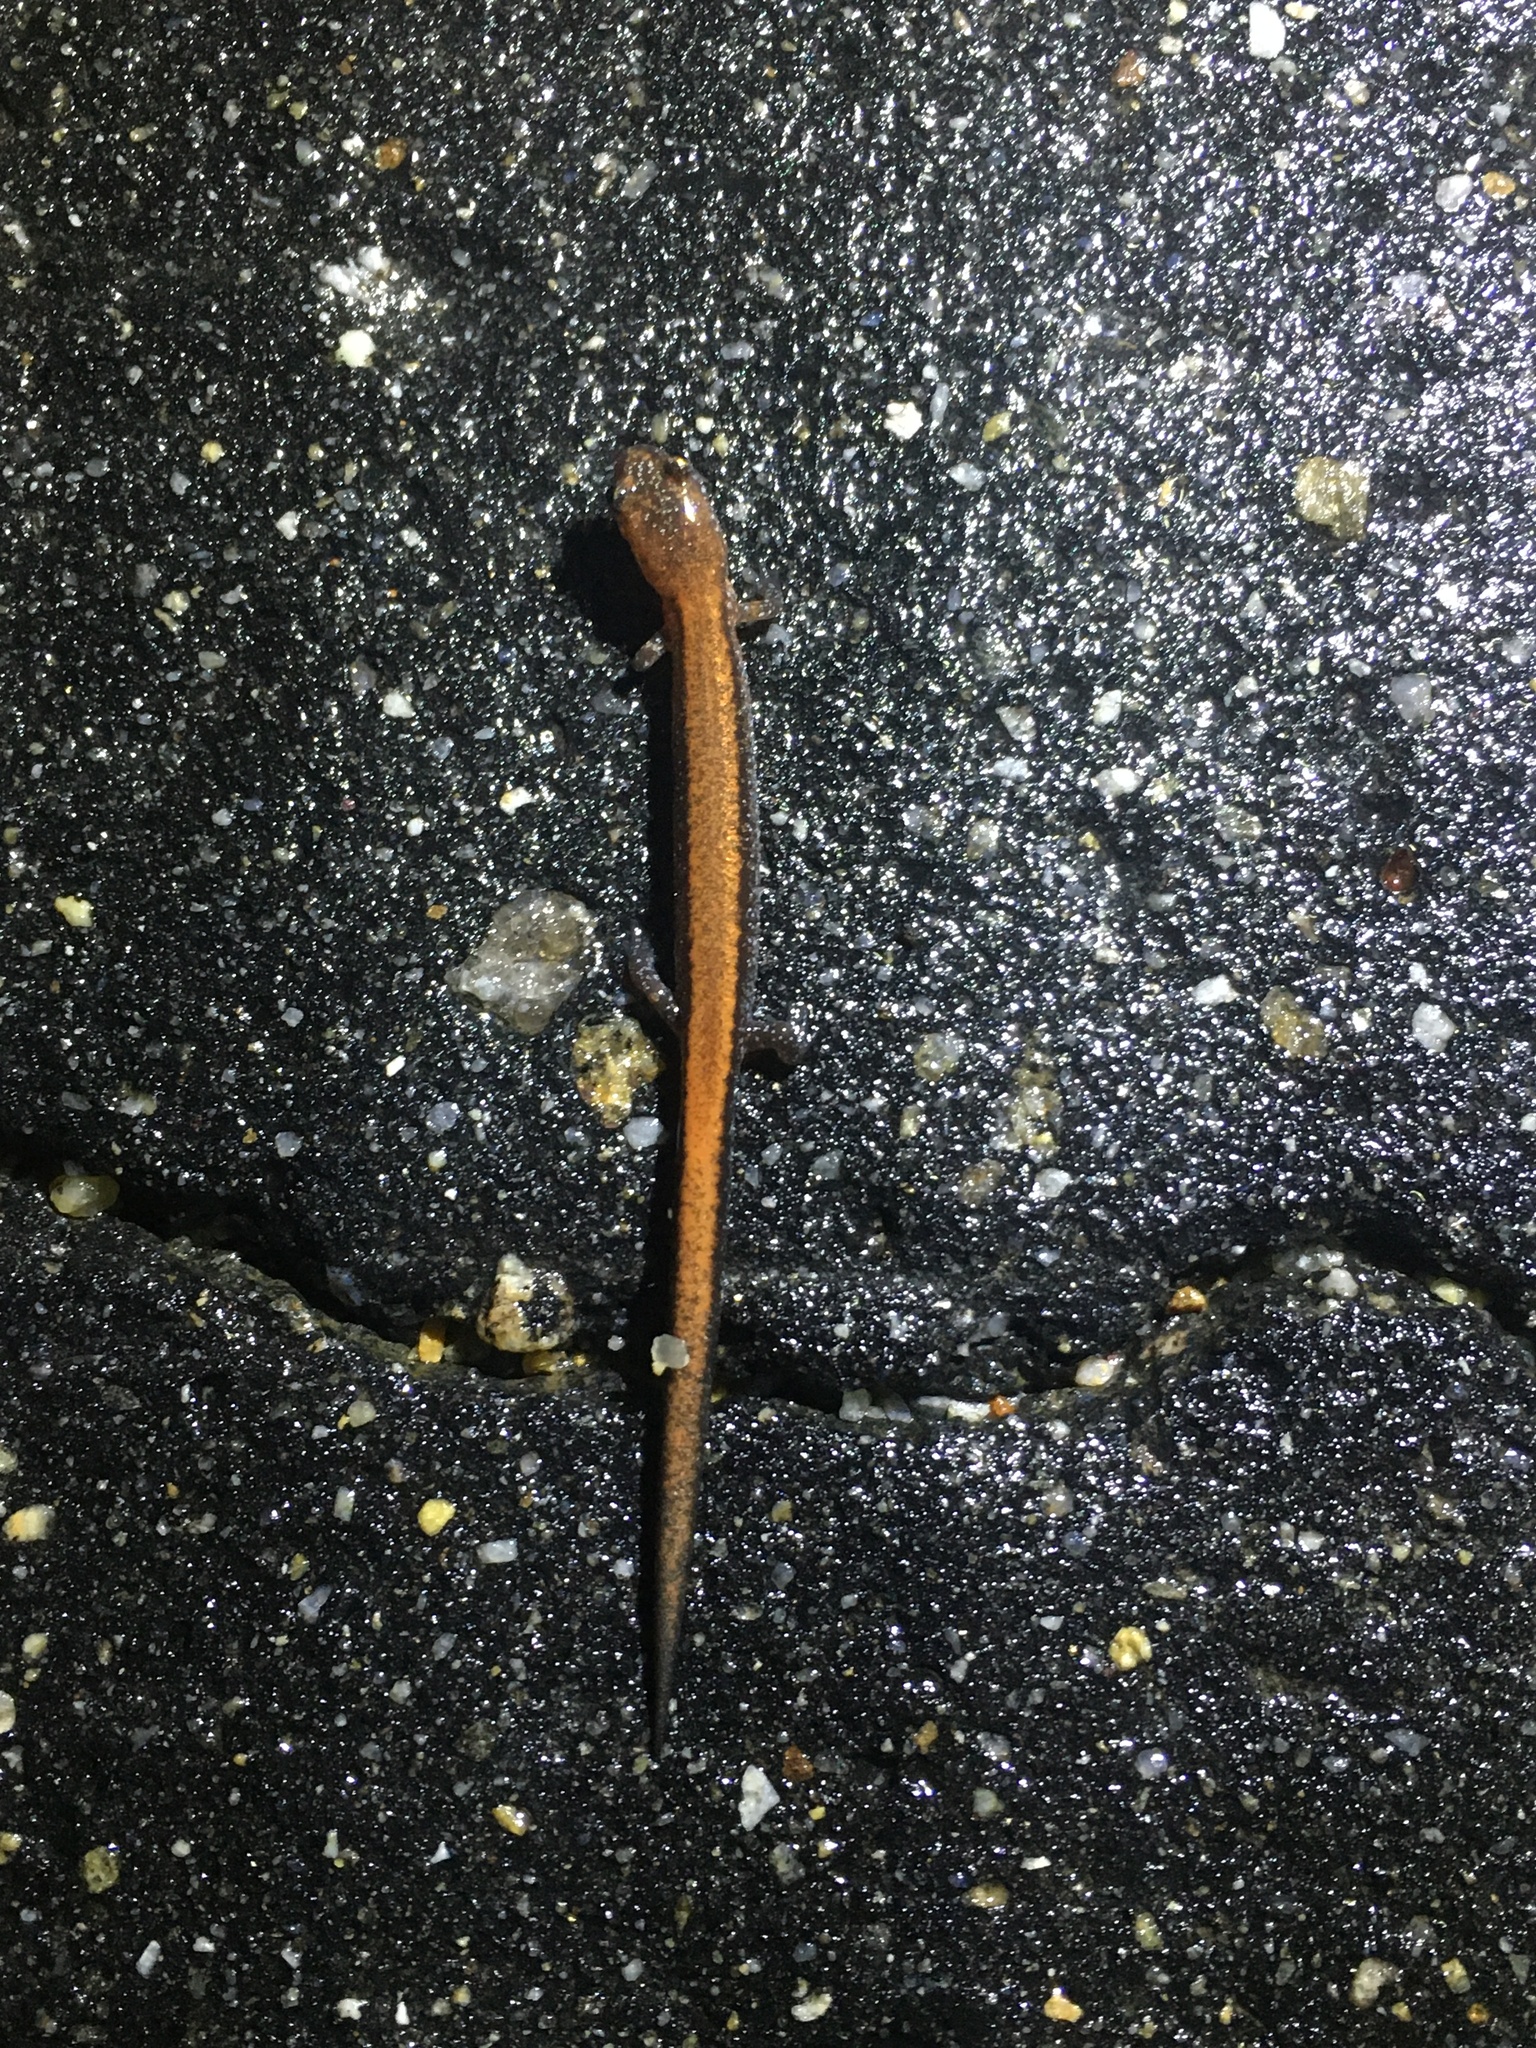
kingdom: Animalia
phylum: Chordata
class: Amphibia
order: Caudata
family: Plethodontidae
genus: Plethodon
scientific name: Plethodon cinereus
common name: Redback salamander
